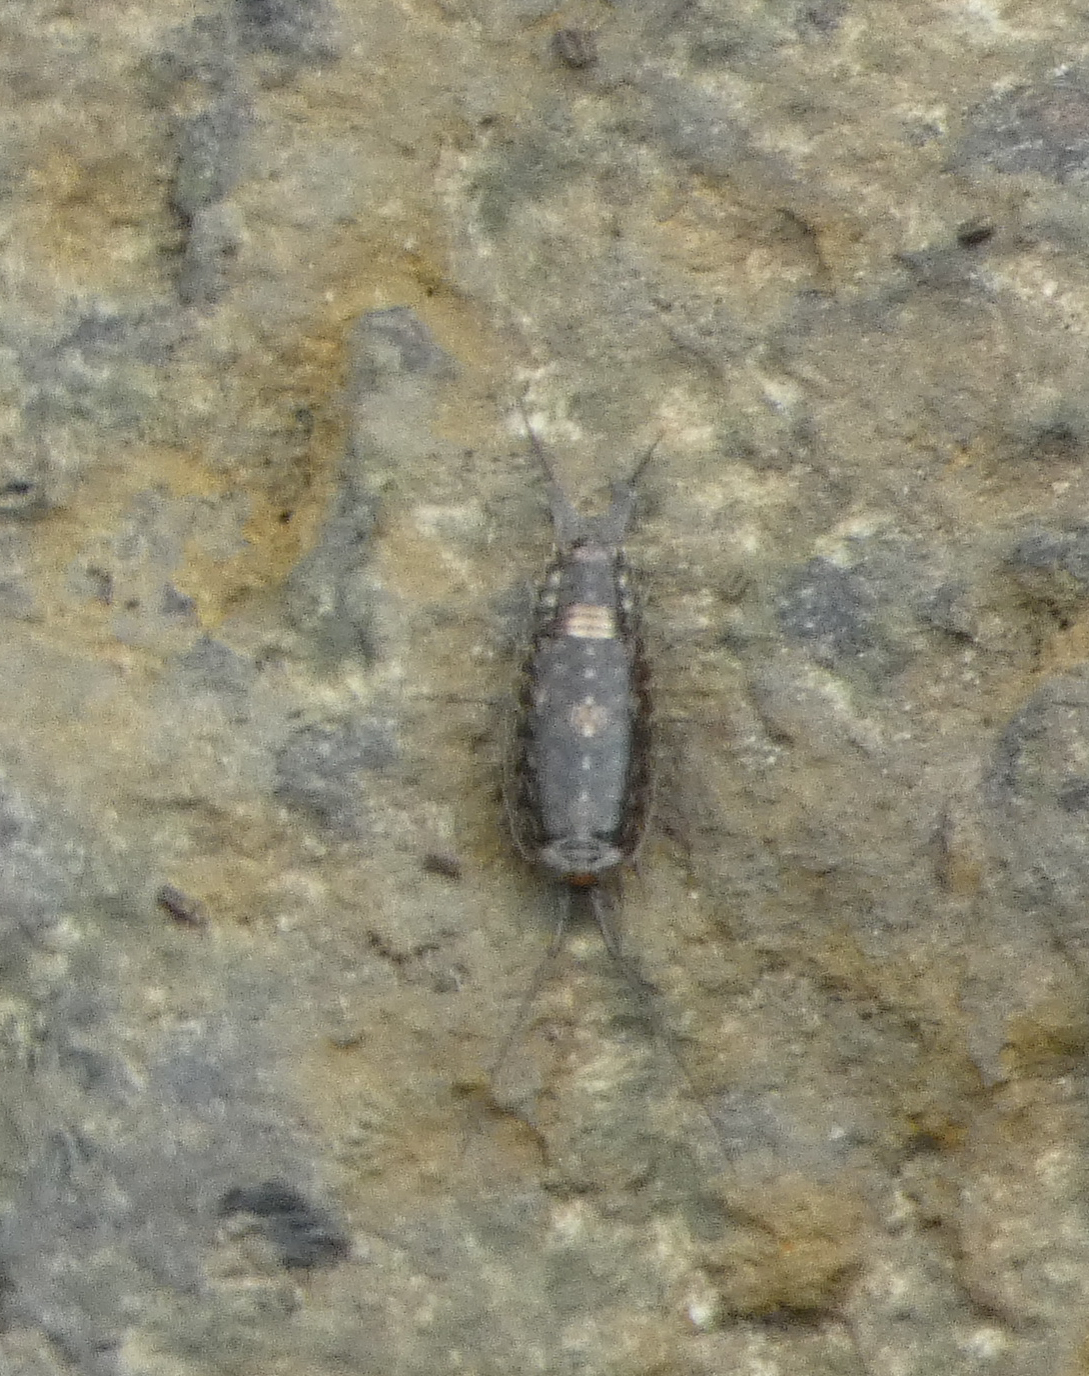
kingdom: Animalia
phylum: Arthropoda
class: Malacostraca
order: Isopoda
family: Ligiidae
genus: Ligia
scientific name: Ligia exotica
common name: Wharf roach
